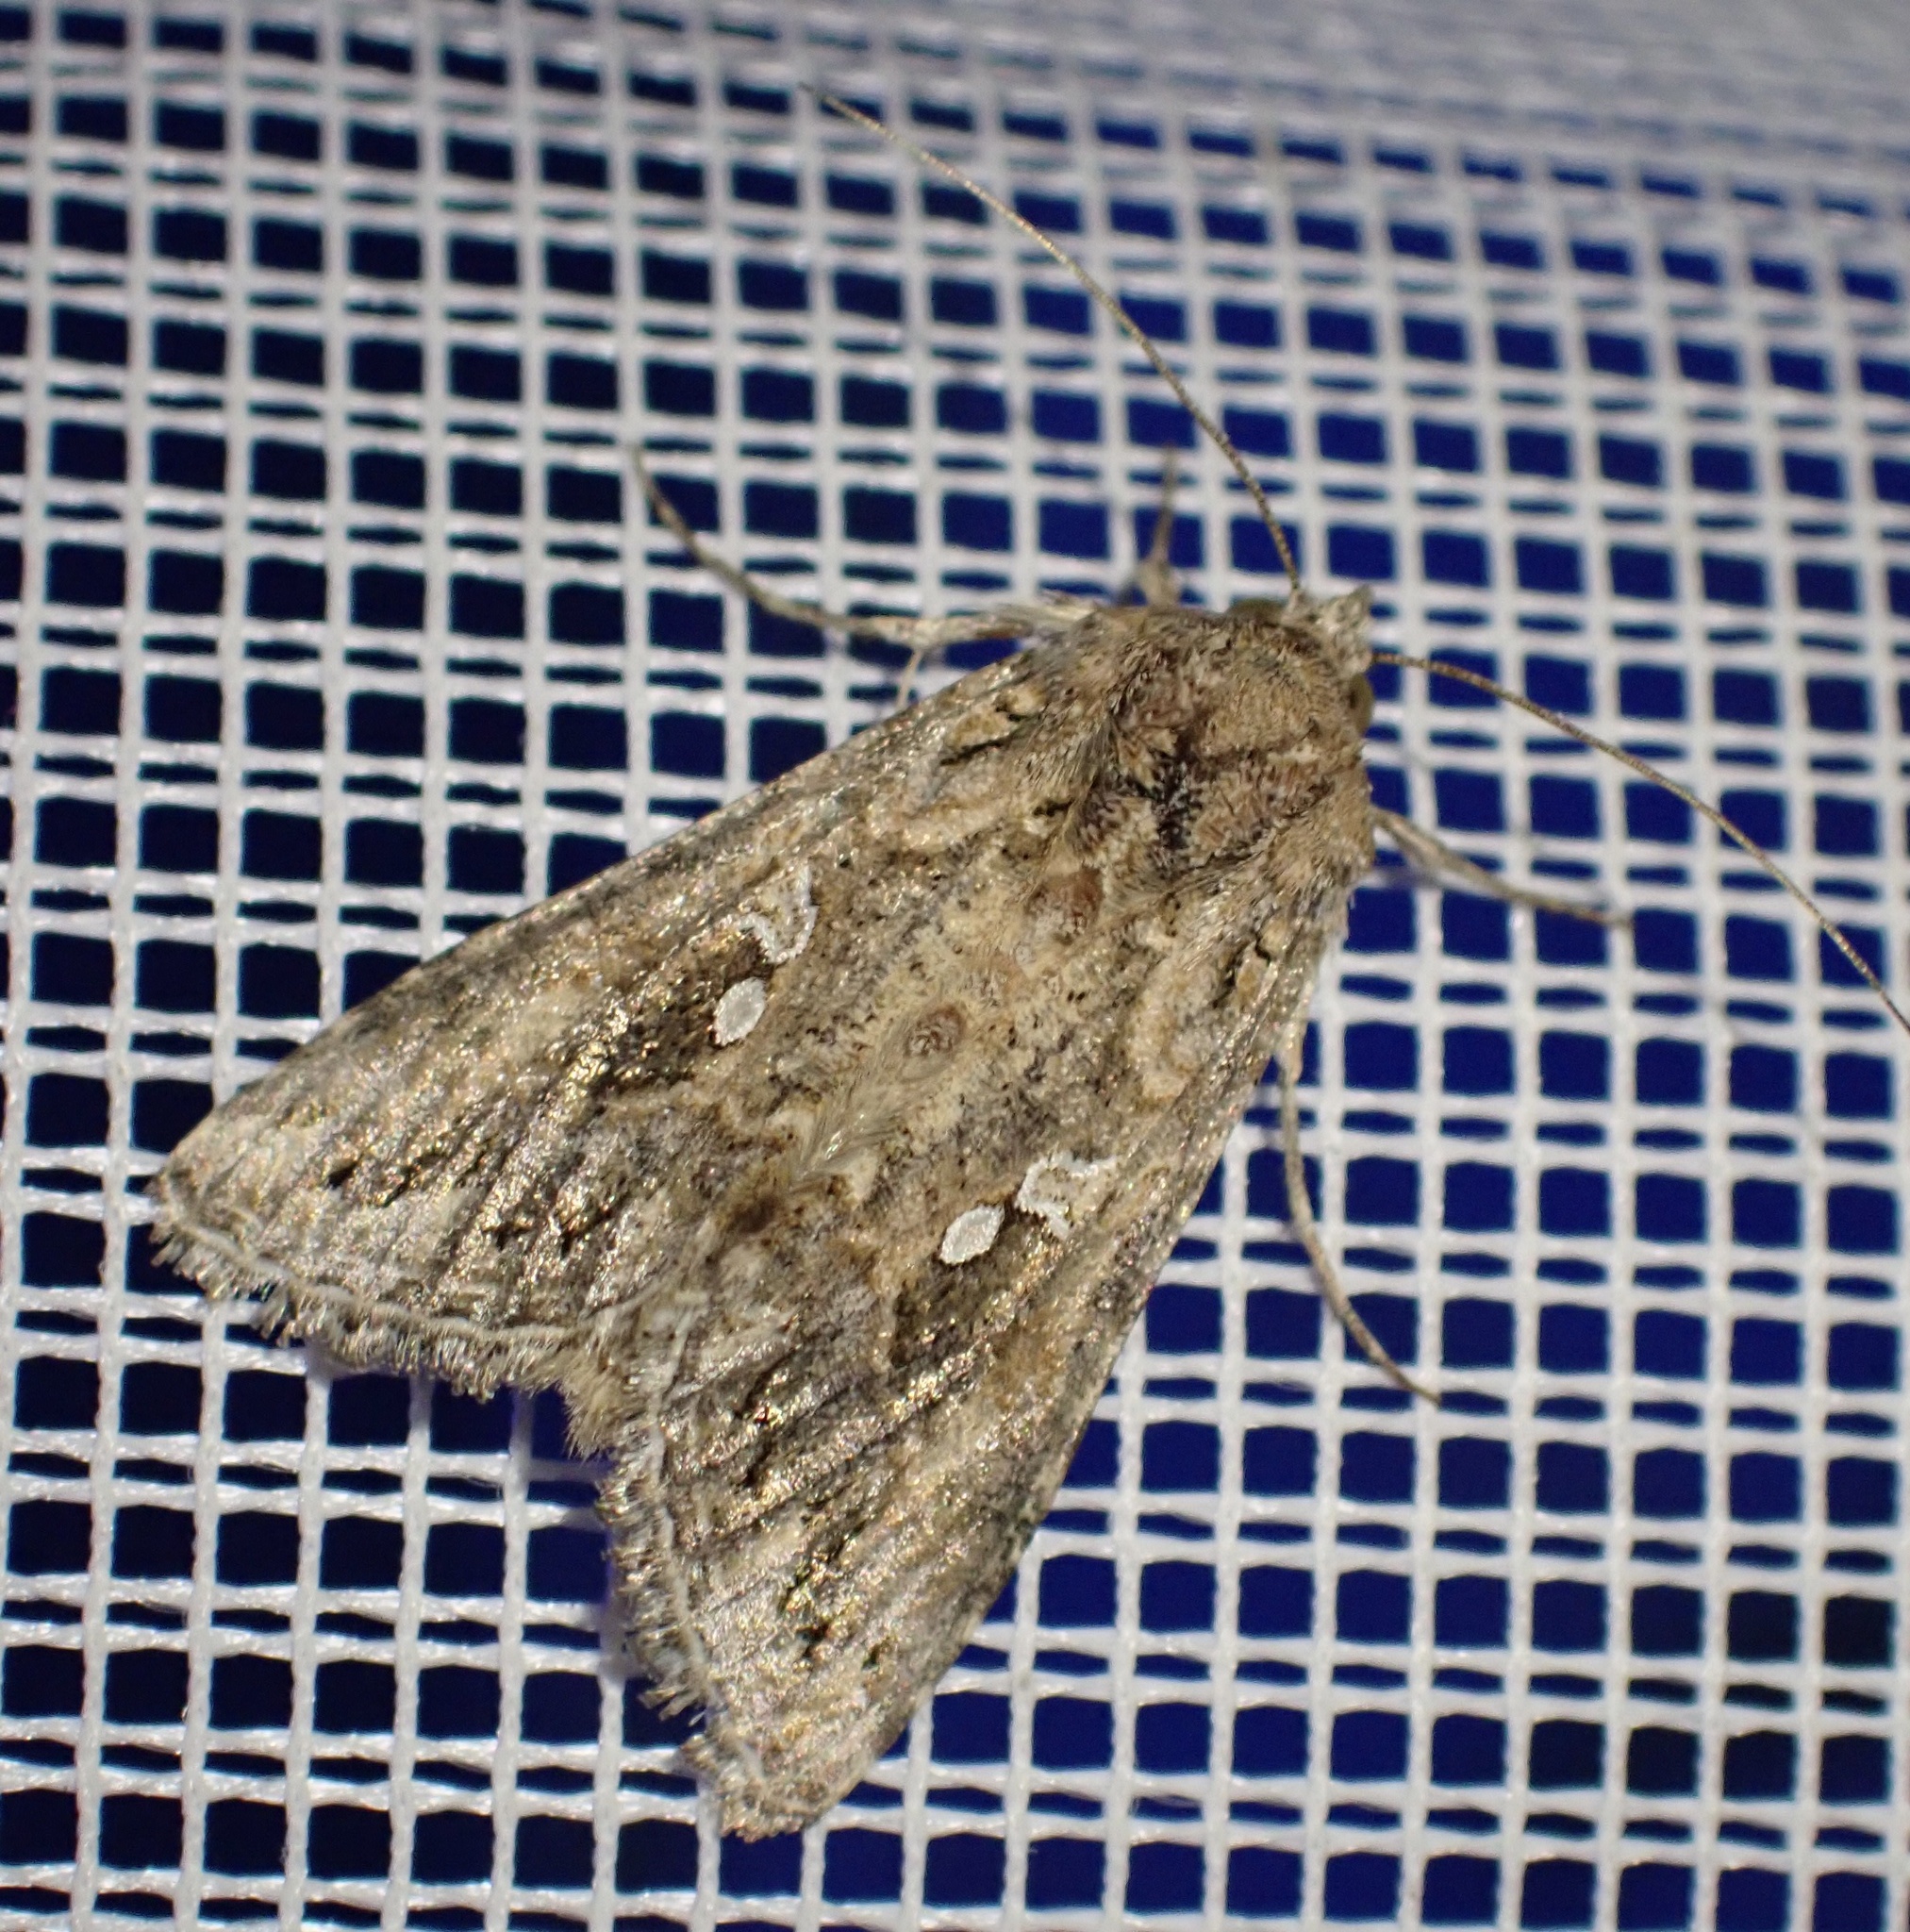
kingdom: Animalia
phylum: Arthropoda
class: Insecta
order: Lepidoptera
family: Noctuidae
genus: Trichoplusia
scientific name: Trichoplusia ni
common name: Ni moth
